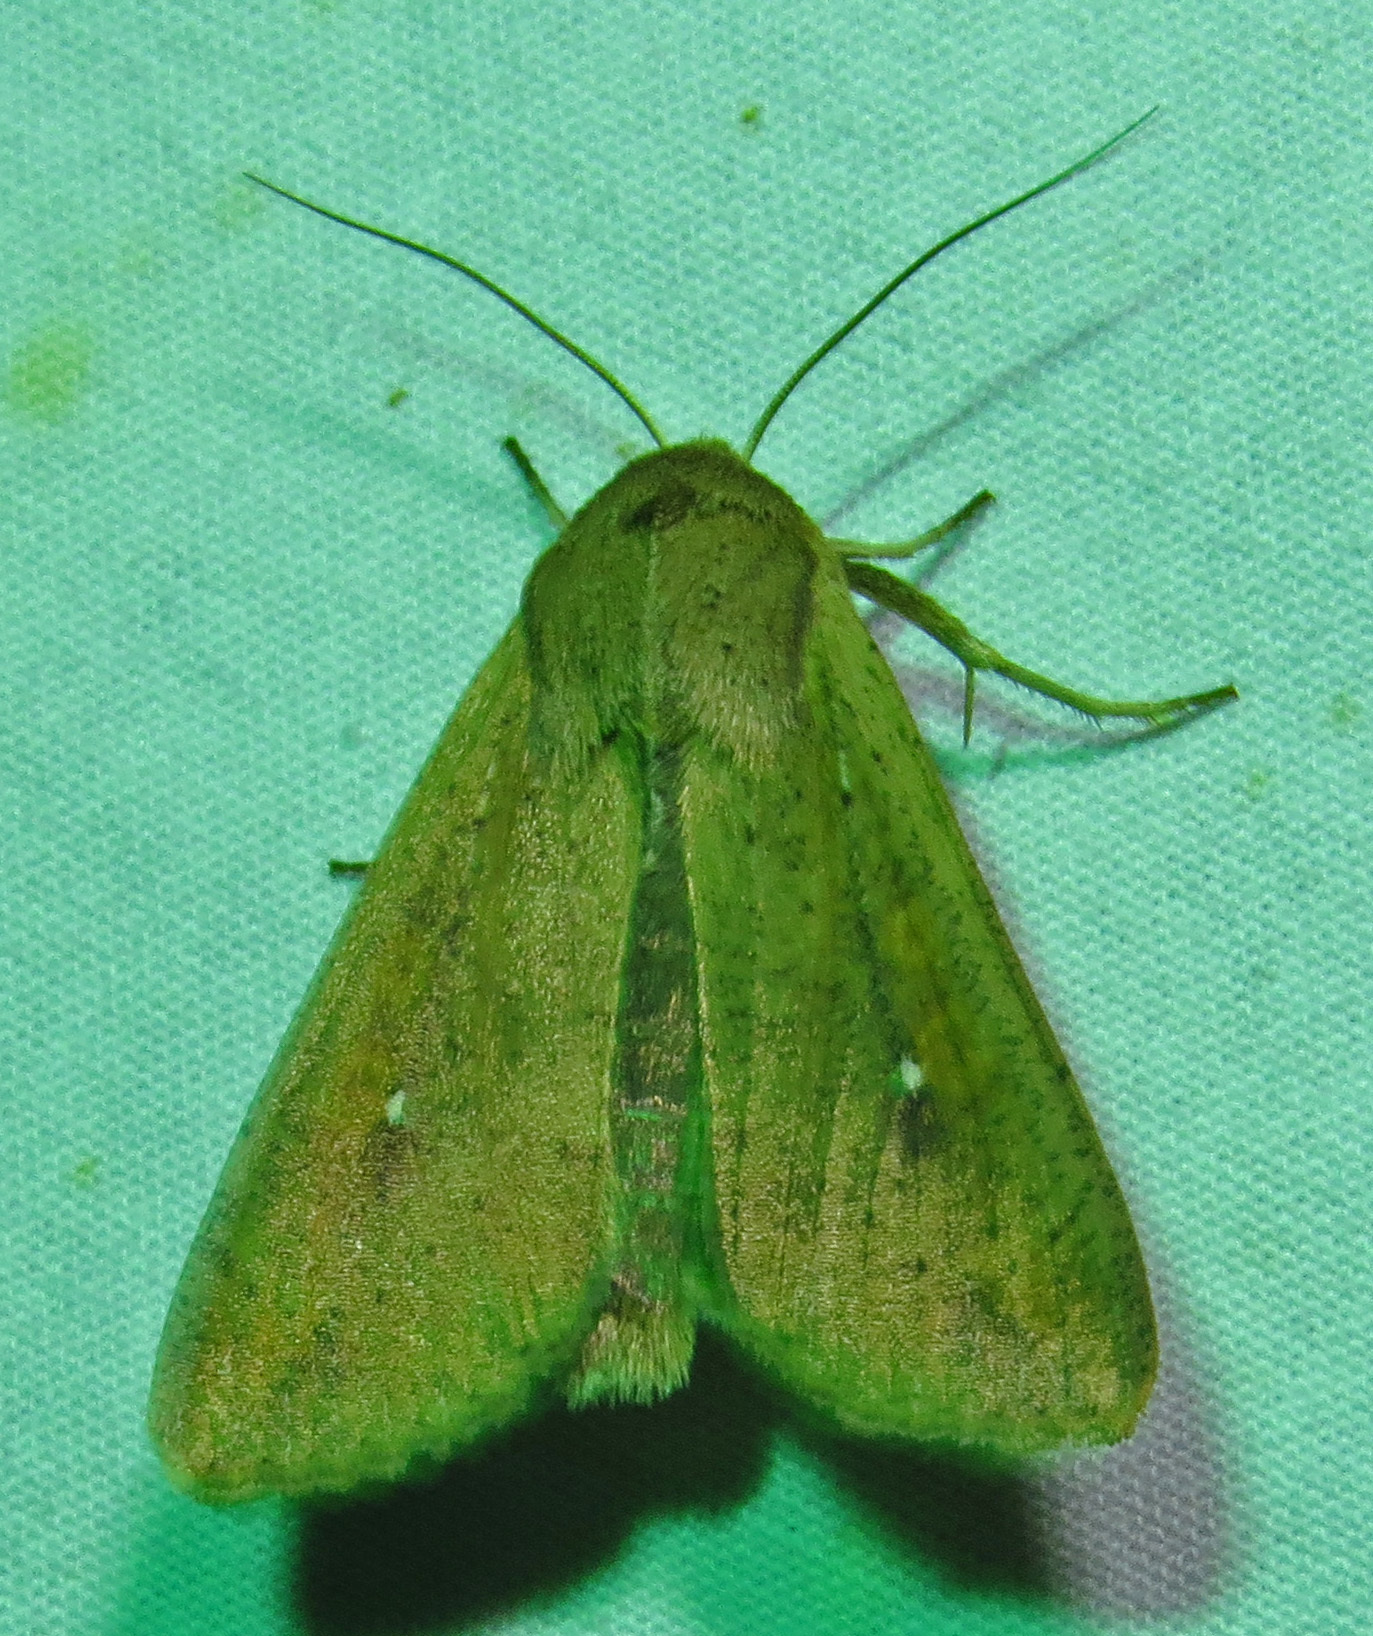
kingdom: Animalia
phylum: Arthropoda
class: Insecta
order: Lepidoptera
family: Noctuidae
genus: Mythimna
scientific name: Mythimna unipuncta
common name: White-speck
